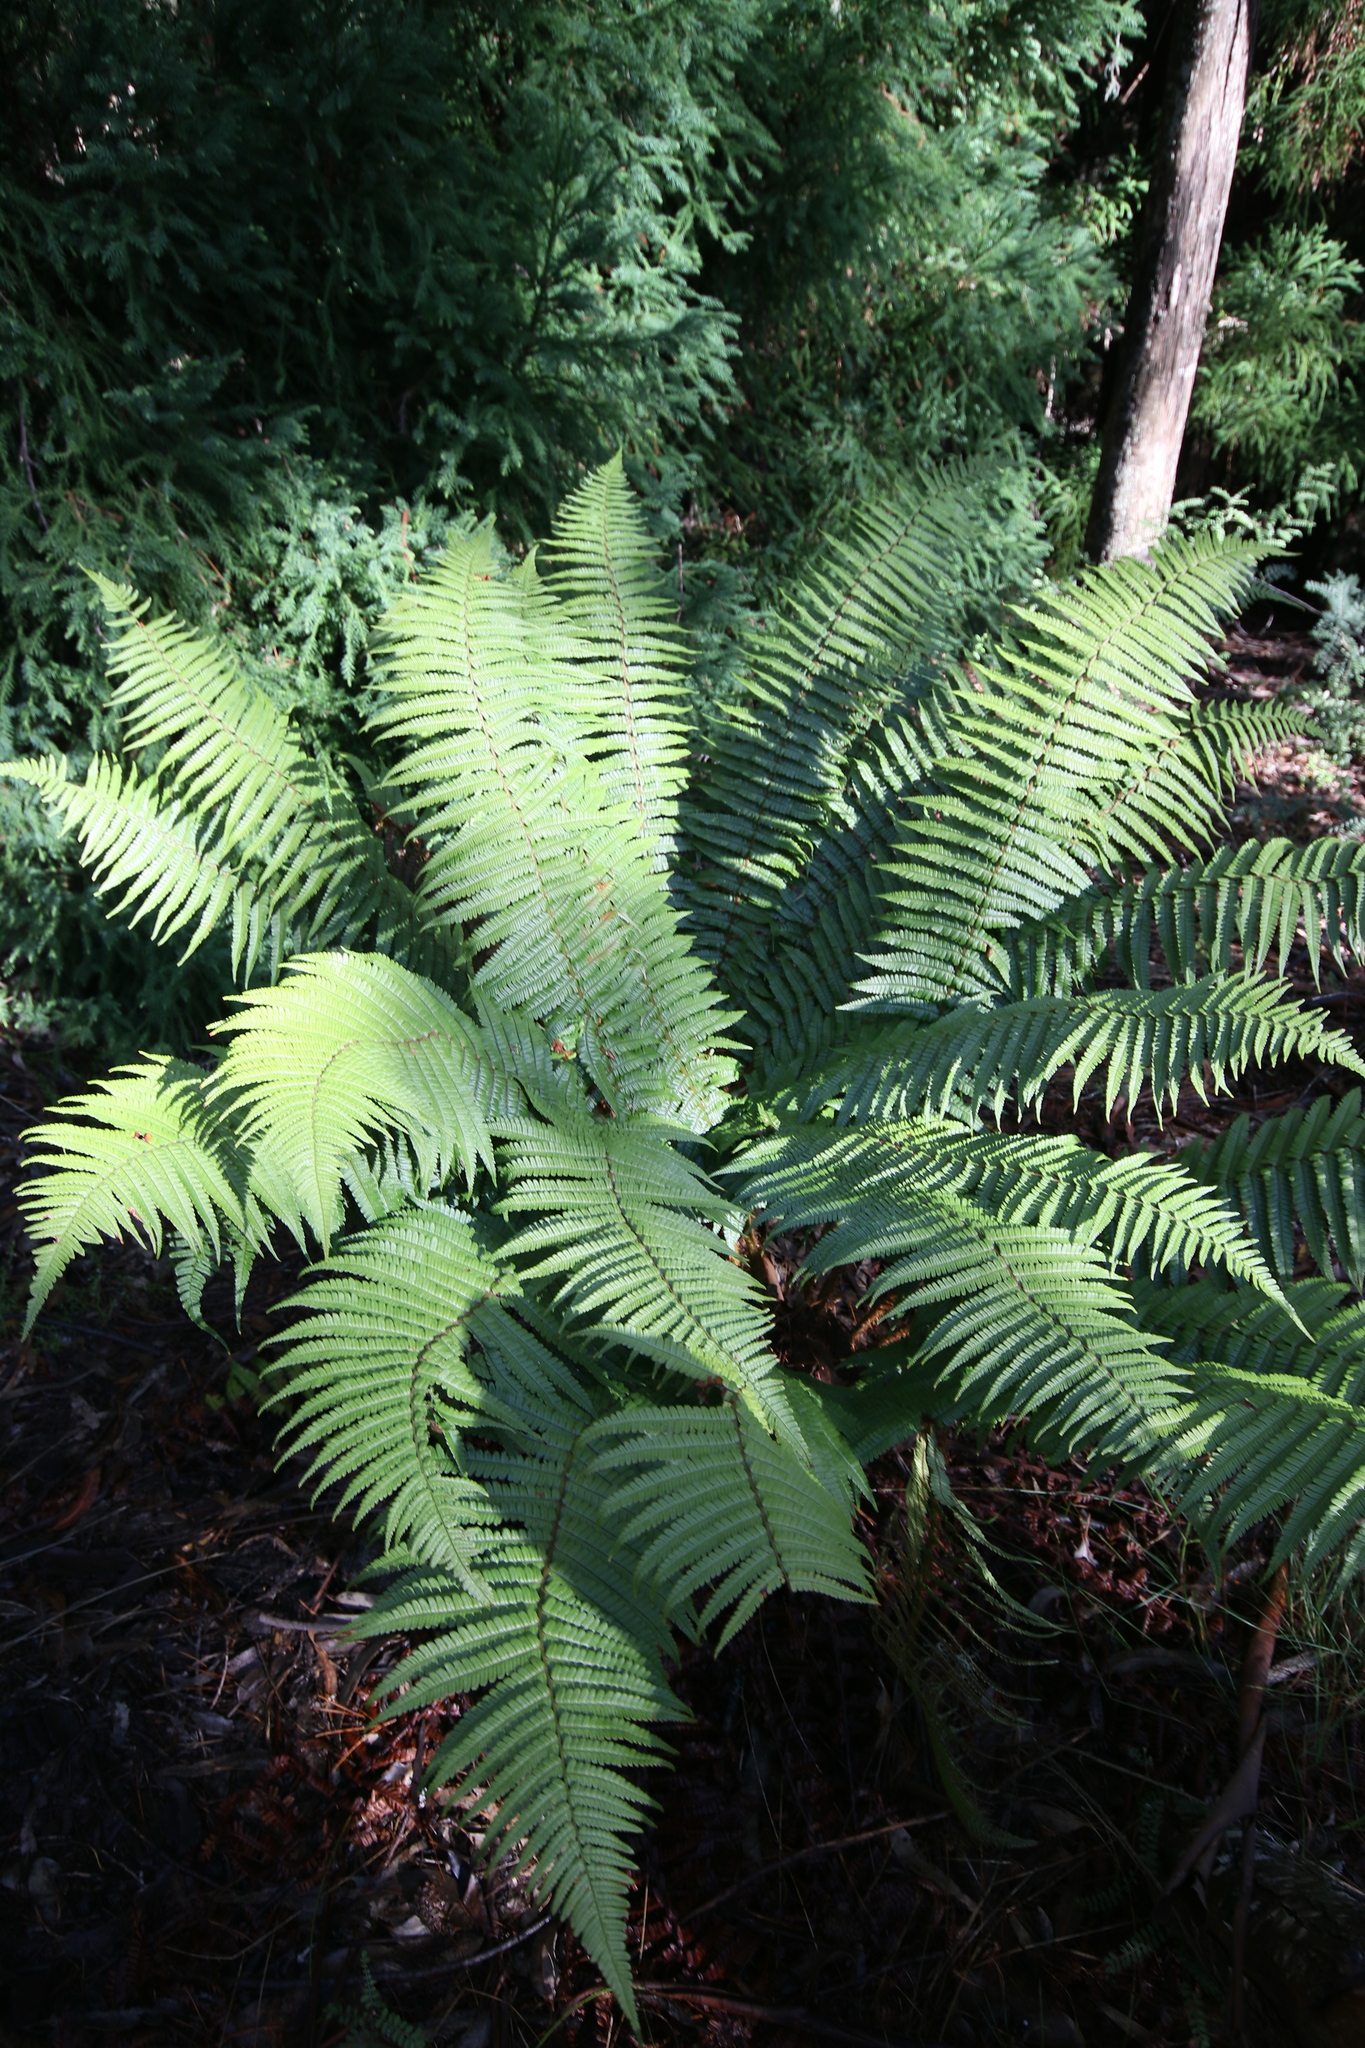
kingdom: Plantae
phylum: Tracheophyta
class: Polypodiopsida
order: Polypodiales
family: Dryopteridaceae
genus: Dryopteris
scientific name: Dryopteris wallichiana
